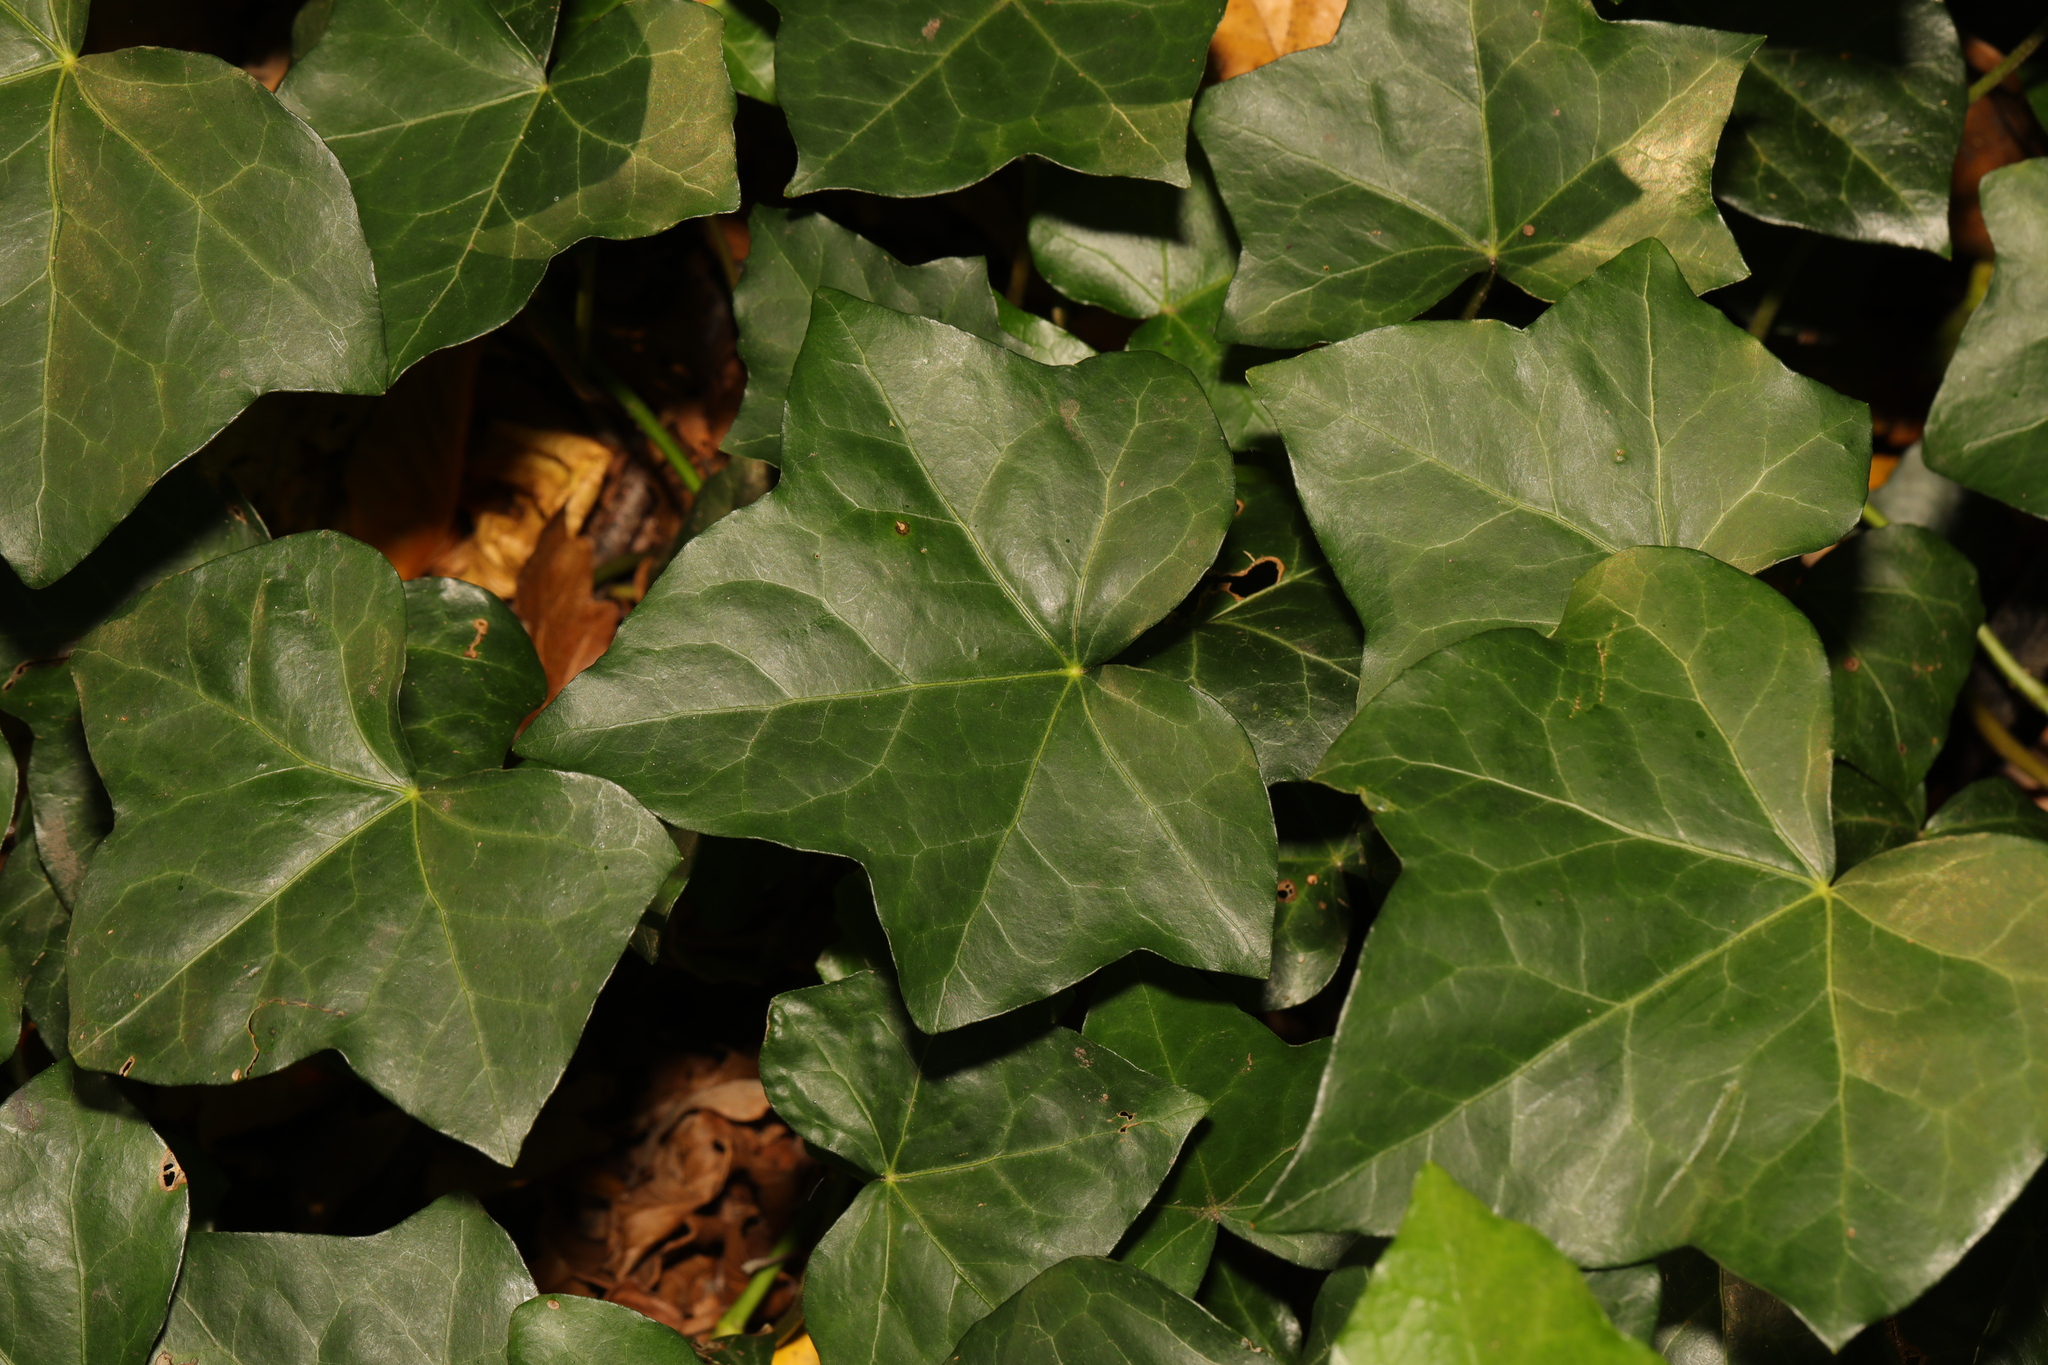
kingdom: Plantae
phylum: Tracheophyta
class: Magnoliopsida
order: Apiales
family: Araliaceae
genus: Hedera
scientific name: Hedera helix
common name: Ivy
